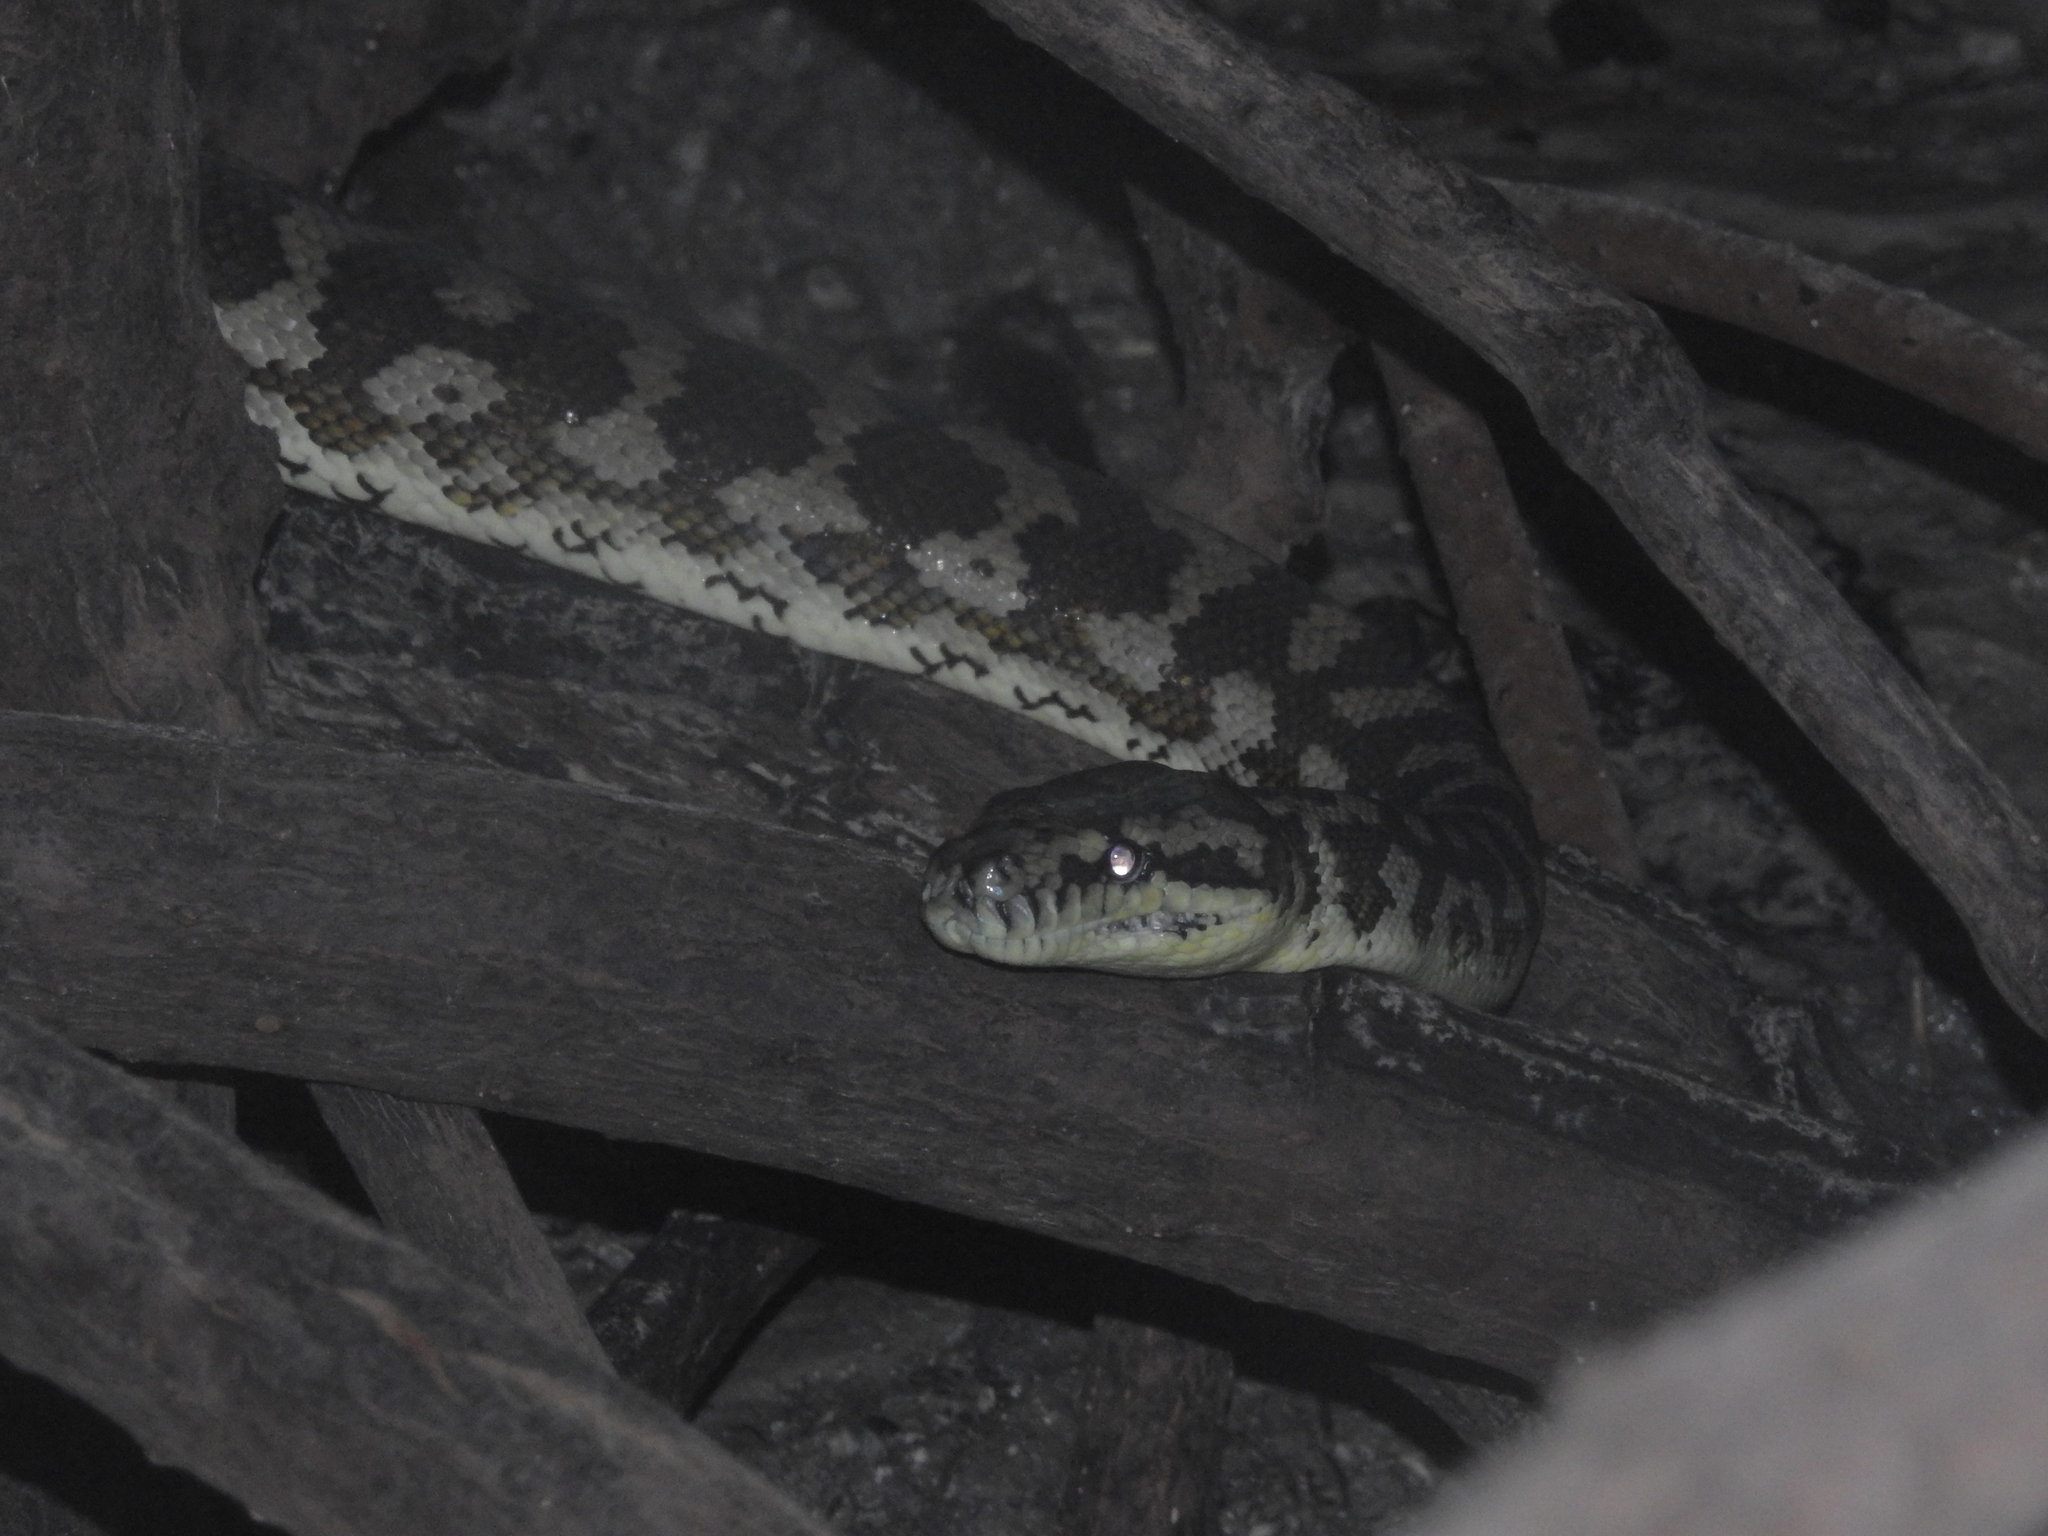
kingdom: Animalia
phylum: Chordata
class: Squamata
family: Pythonidae
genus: Morelia
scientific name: Morelia spilota
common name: Carpet python
